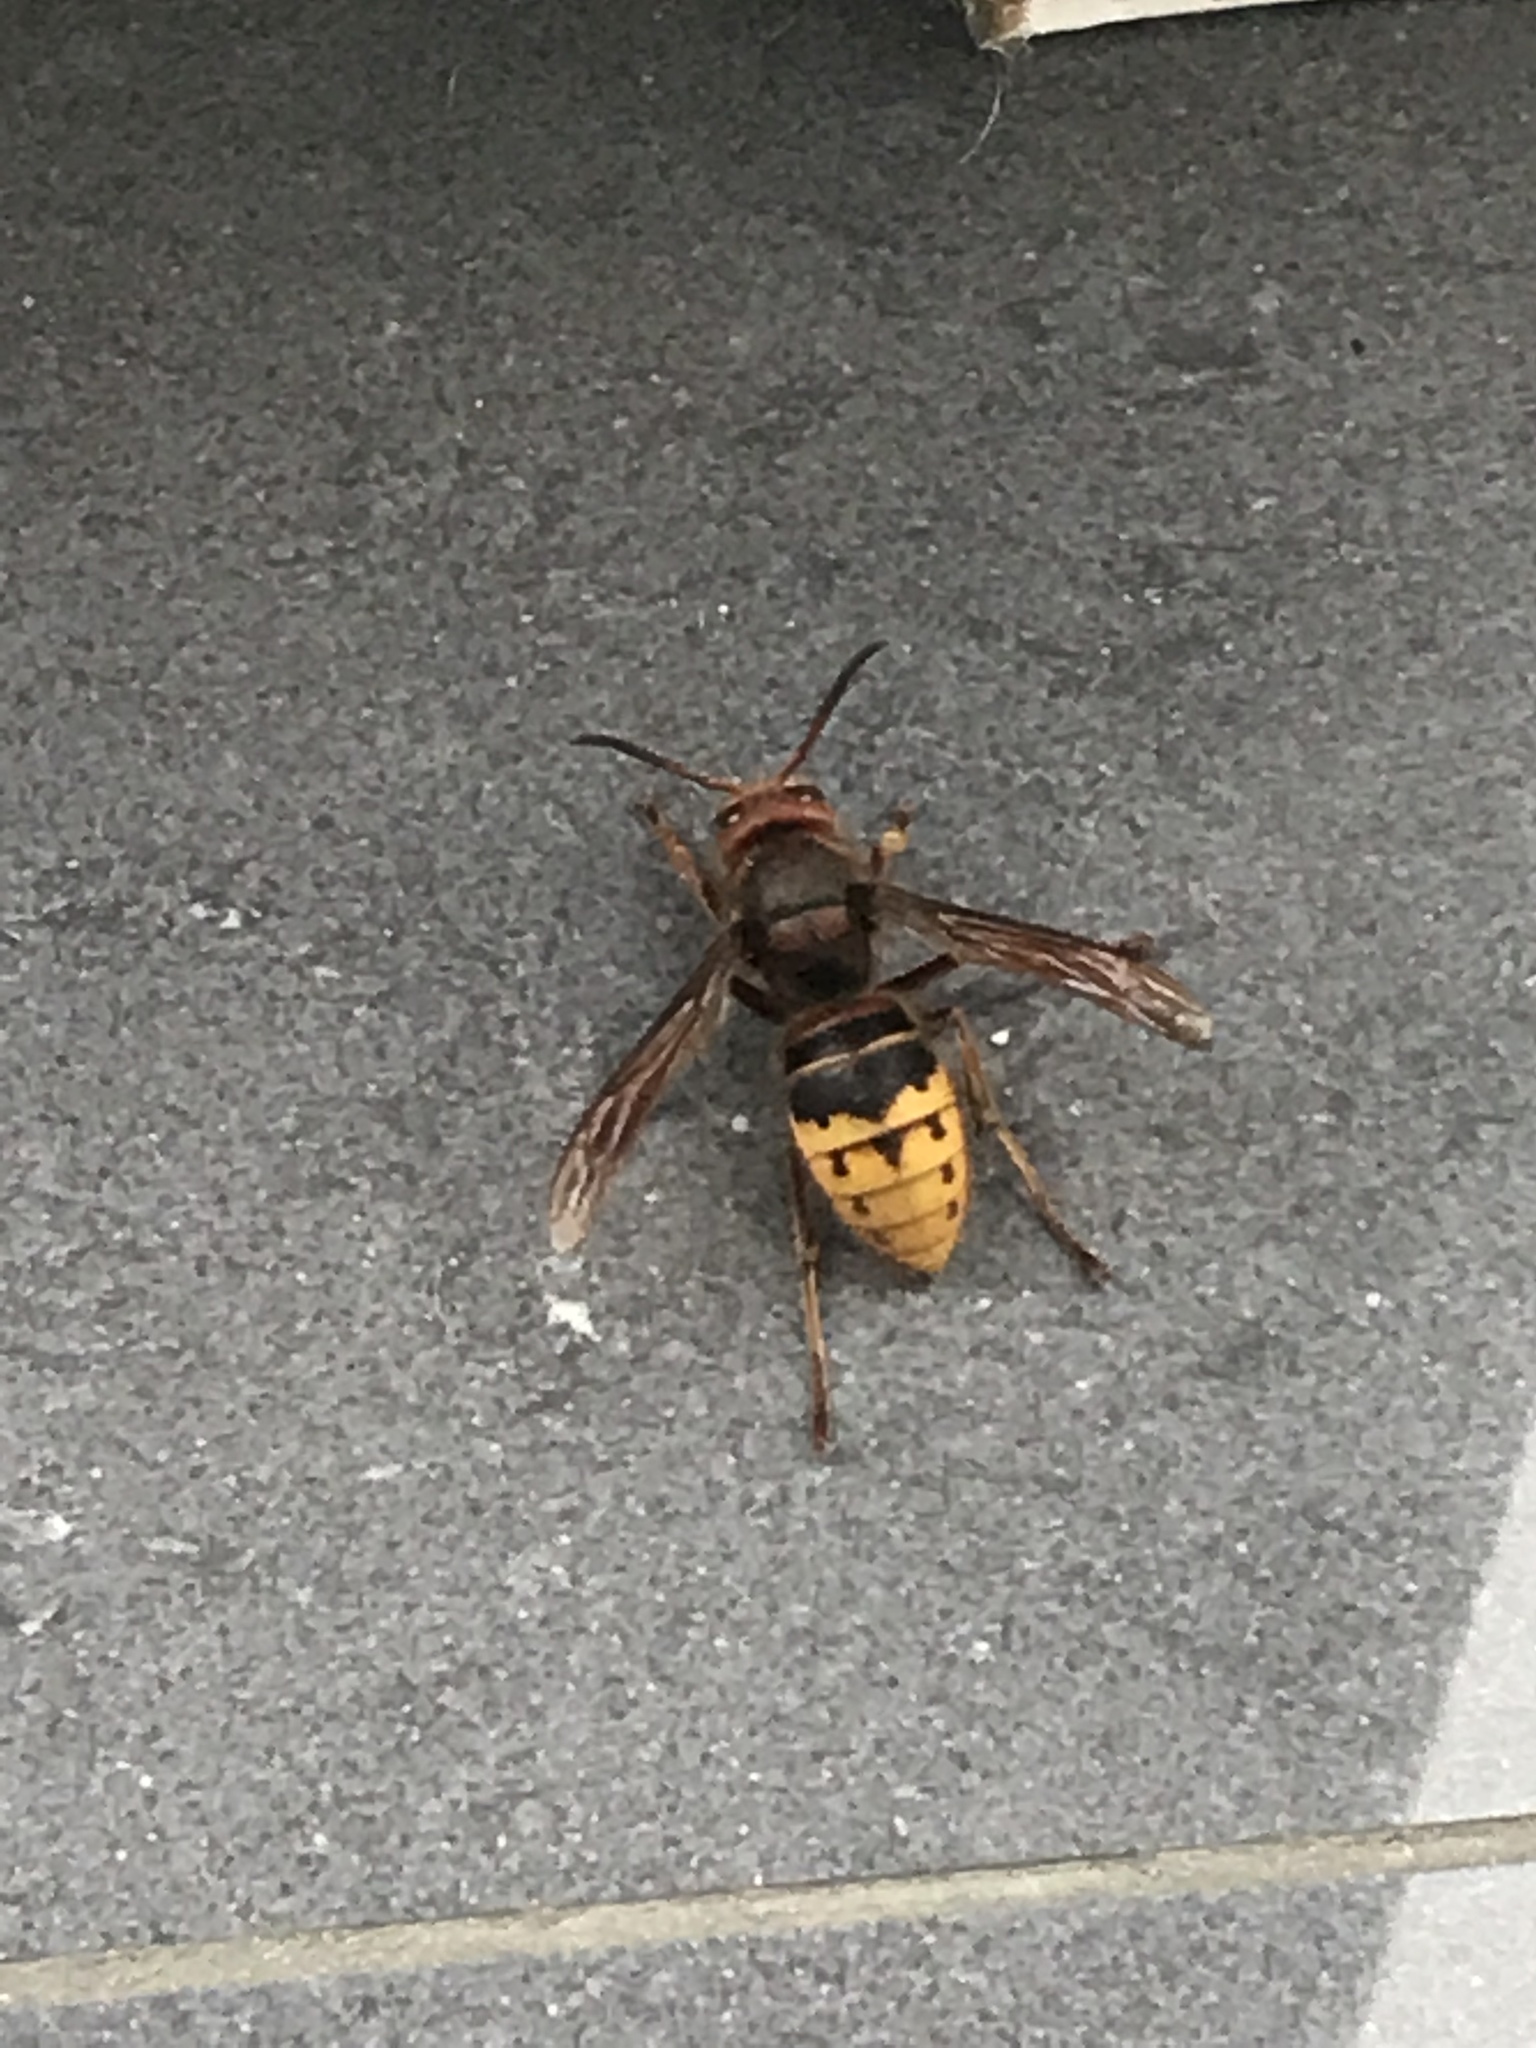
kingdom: Animalia
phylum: Arthropoda
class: Insecta
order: Hymenoptera
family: Vespidae
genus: Vespa
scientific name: Vespa crabro
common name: Hornet
